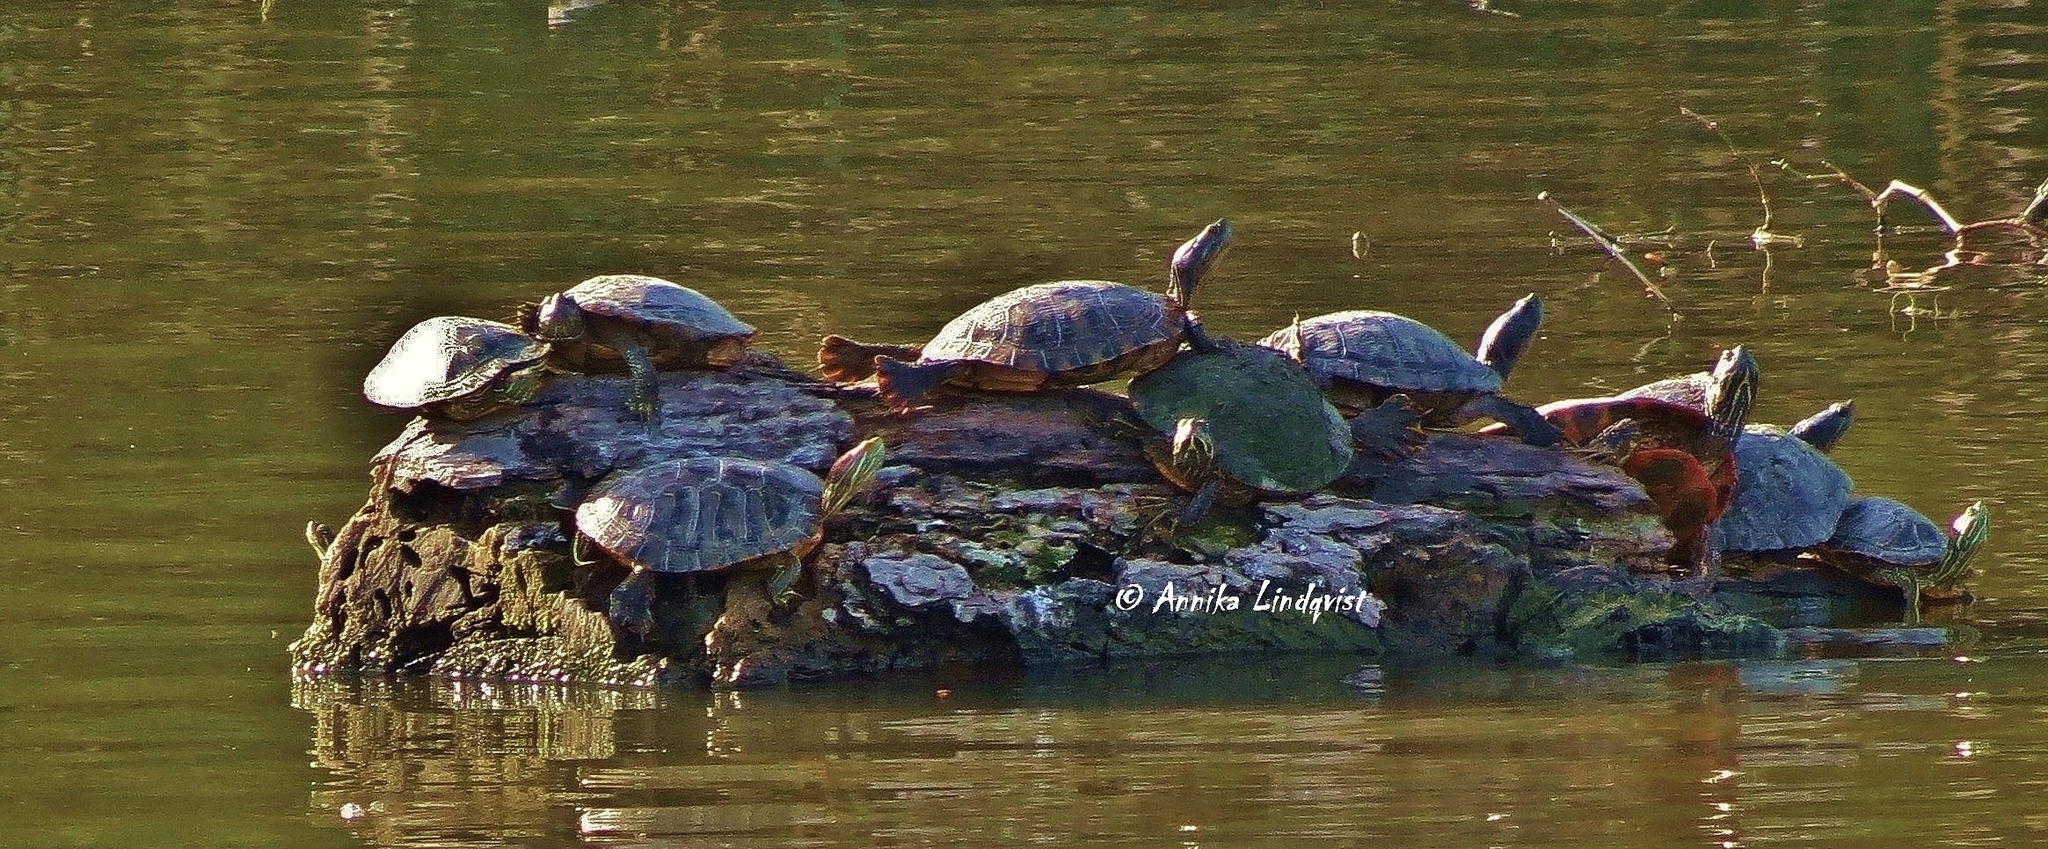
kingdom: Animalia
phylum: Chordata
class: Testudines
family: Emydidae
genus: Trachemys
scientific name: Trachemys scripta
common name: Slider
